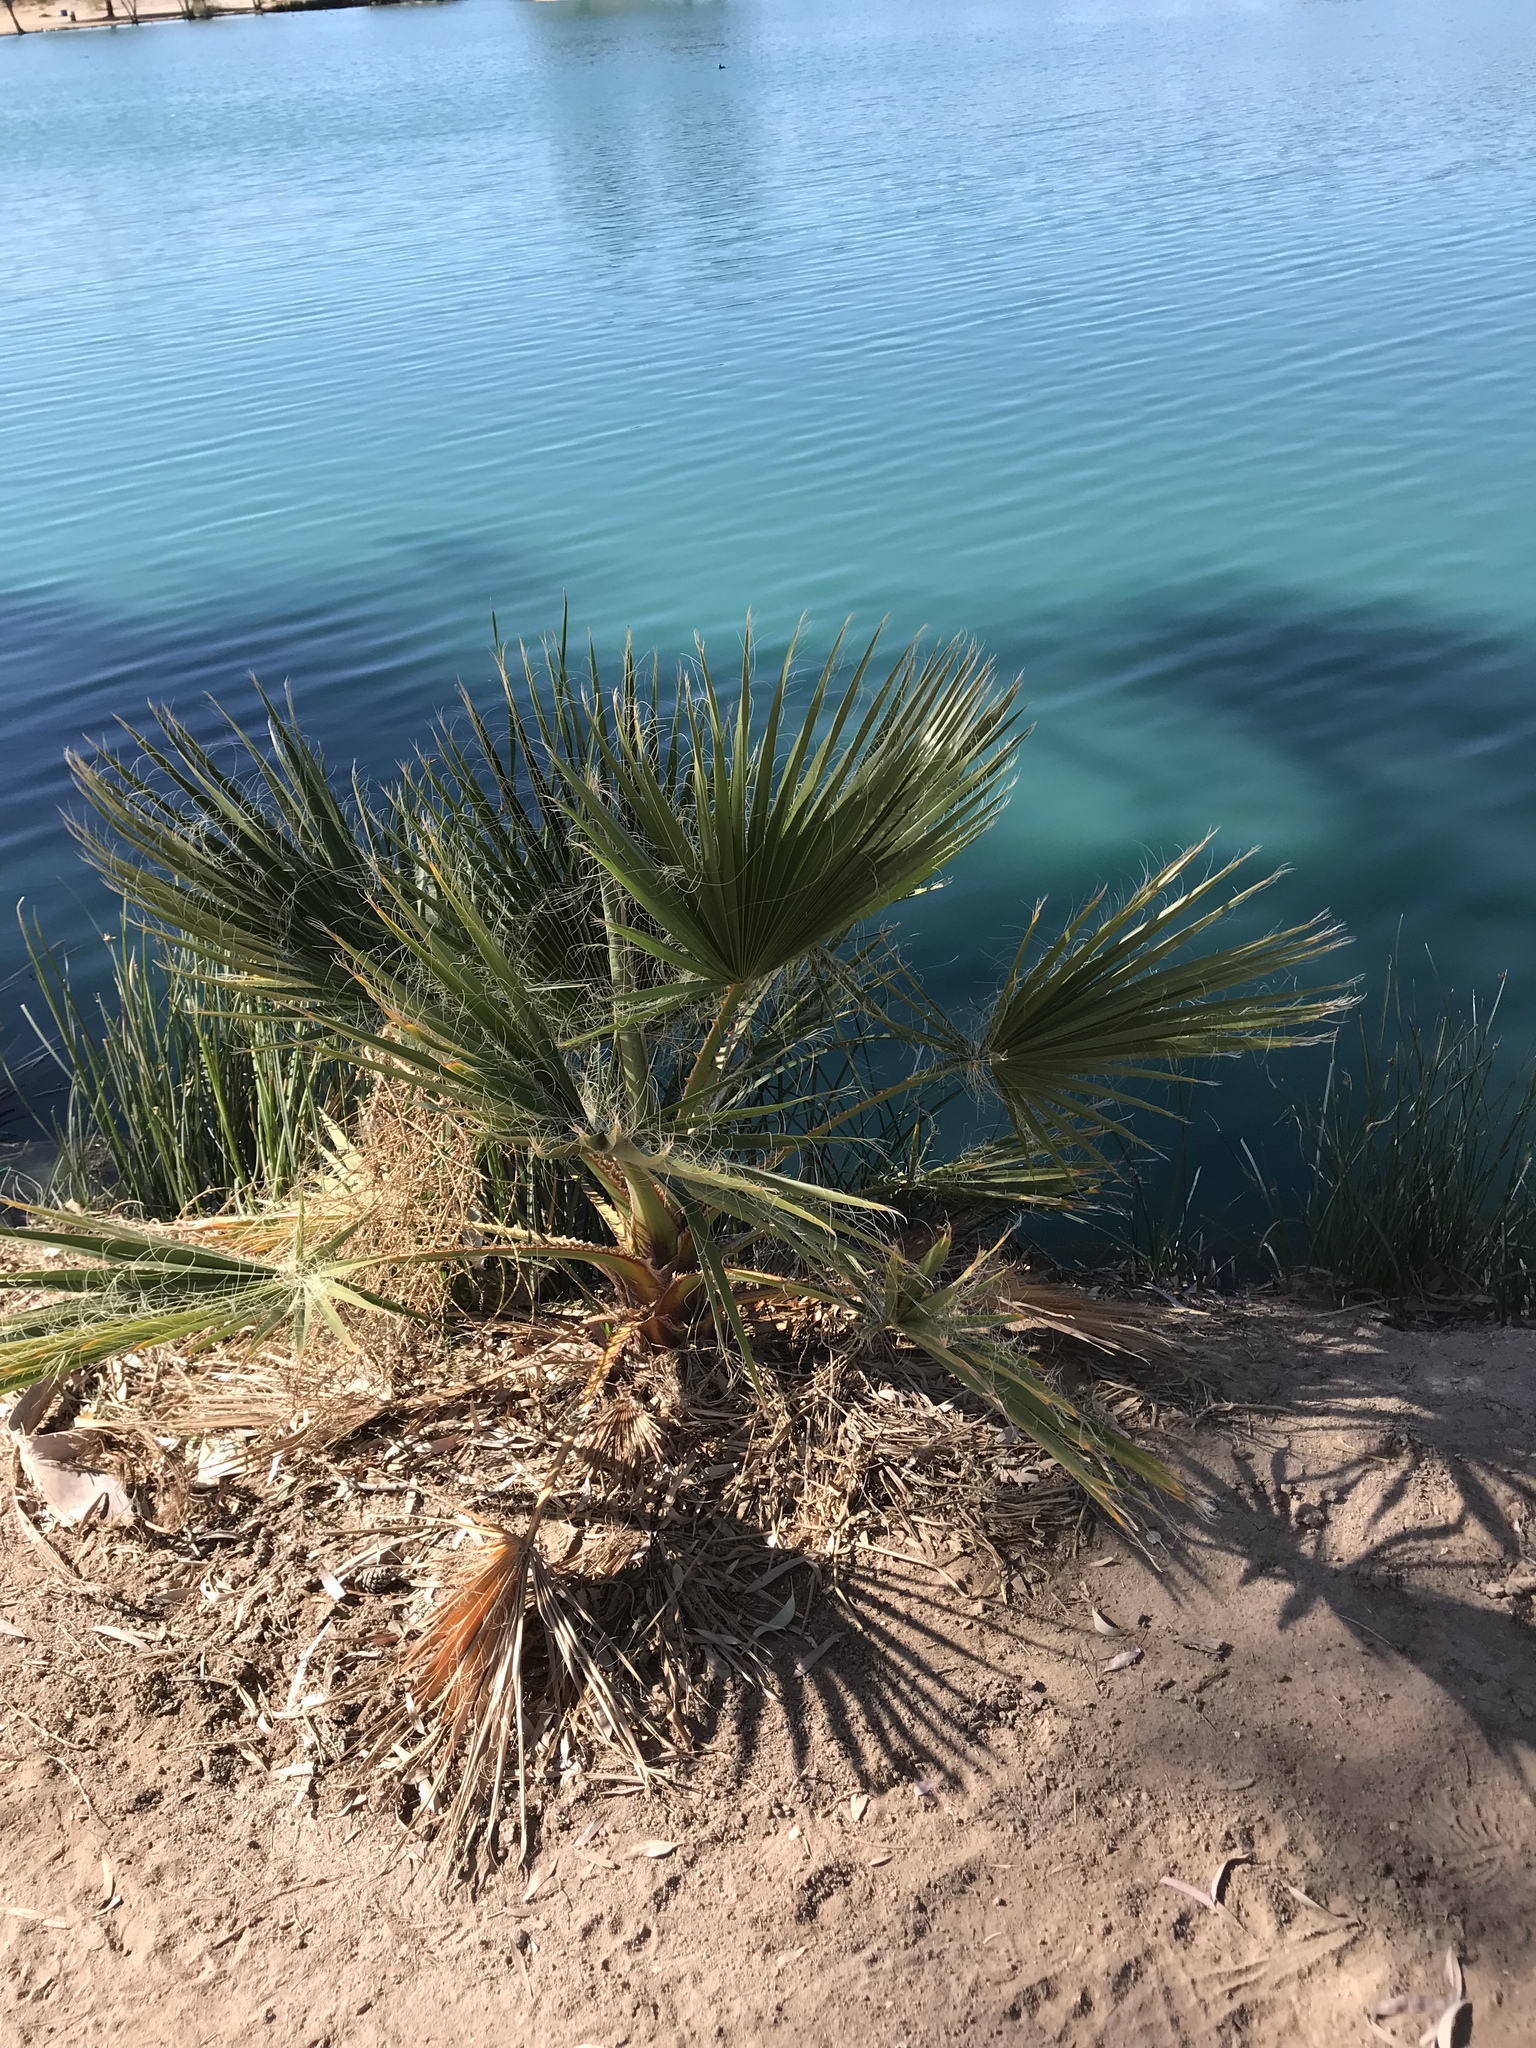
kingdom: Plantae
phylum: Tracheophyta
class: Liliopsida
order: Arecales
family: Arecaceae
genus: Washingtonia
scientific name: Washingtonia filifera
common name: California fan palm
